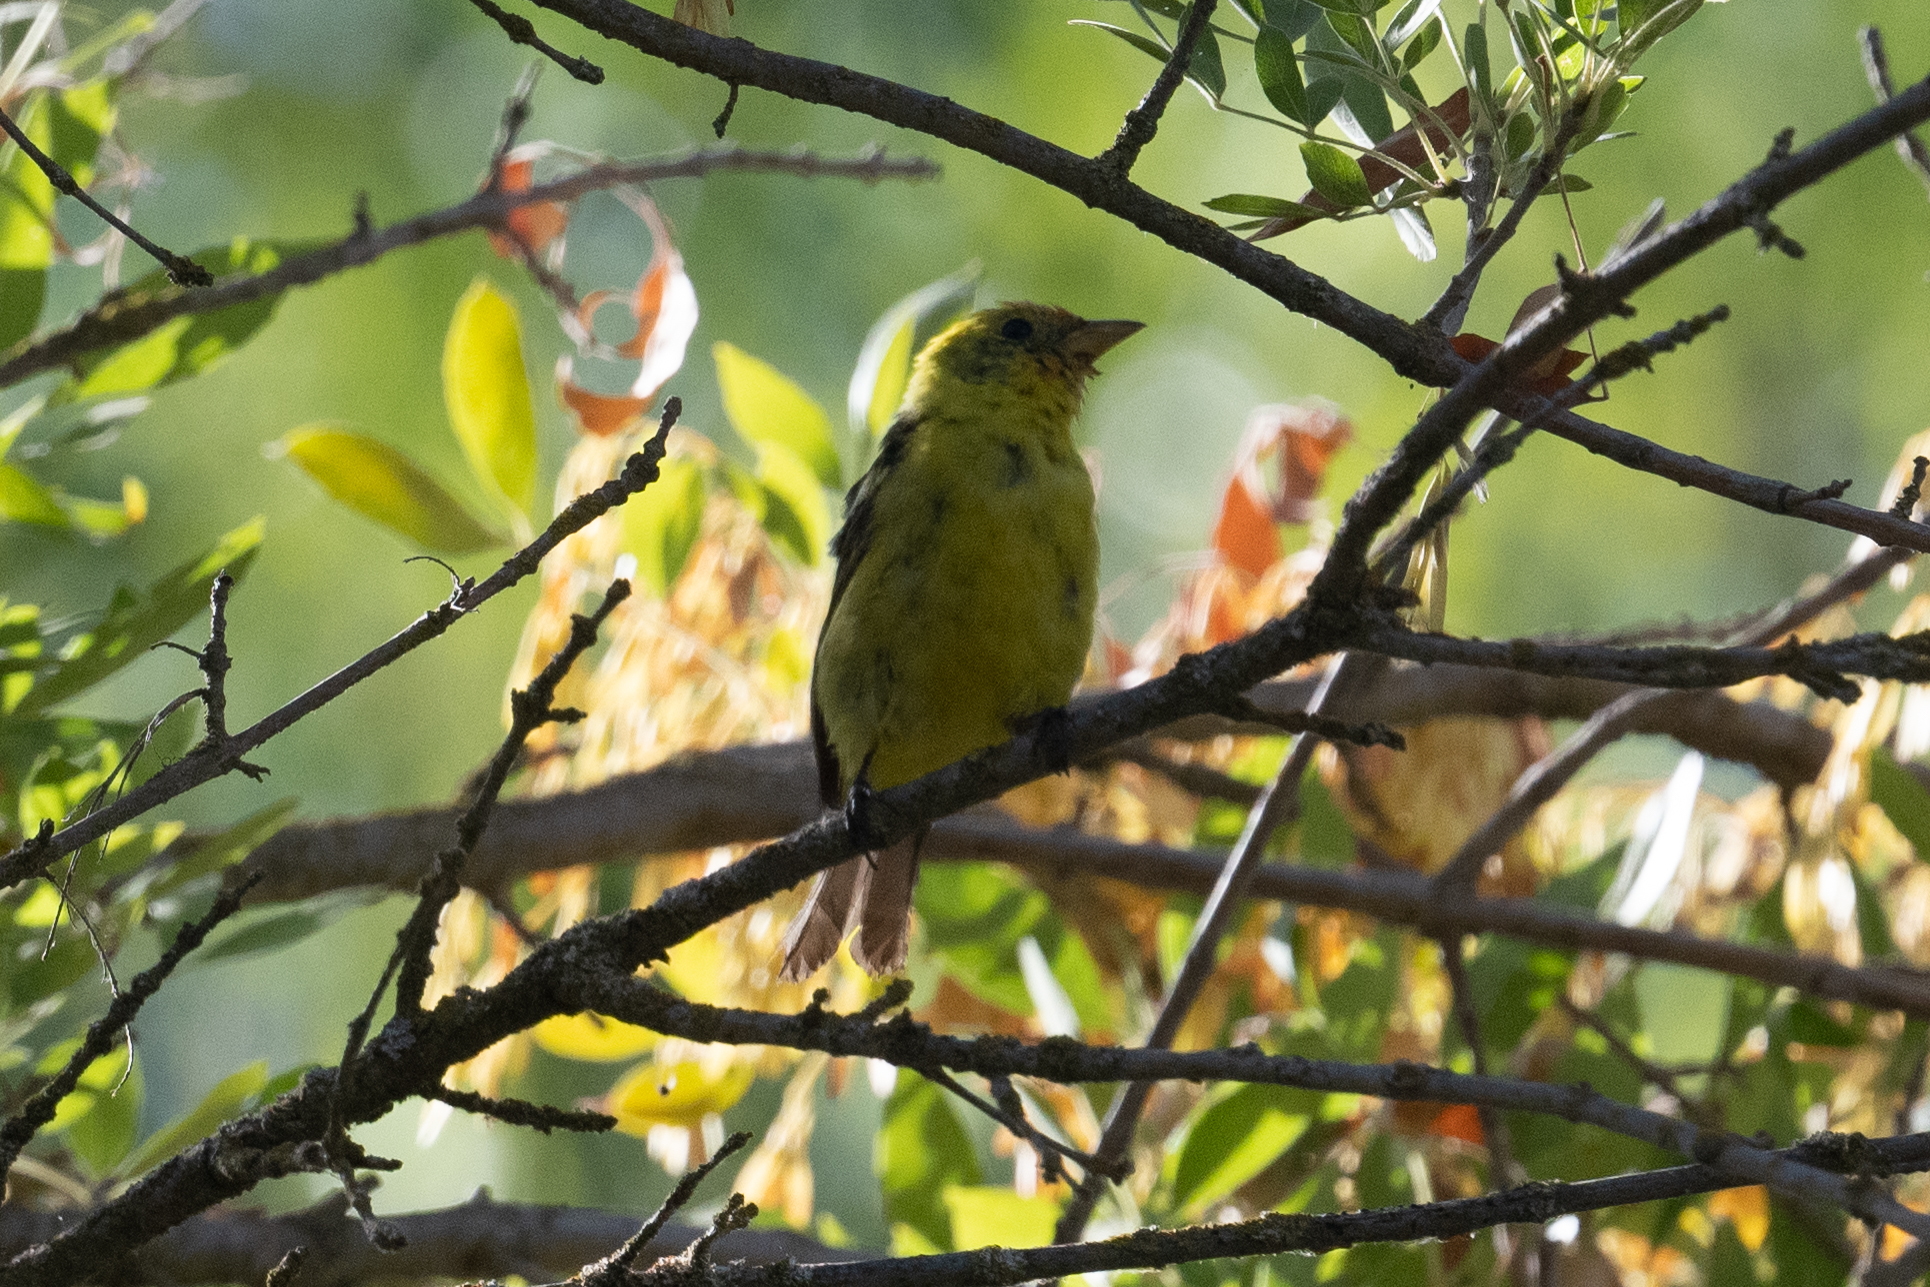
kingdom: Animalia
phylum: Chordata
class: Aves
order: Passeriformes
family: Cardinalidae
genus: Piranga
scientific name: Piranga ludoviciana
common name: Western tanager
